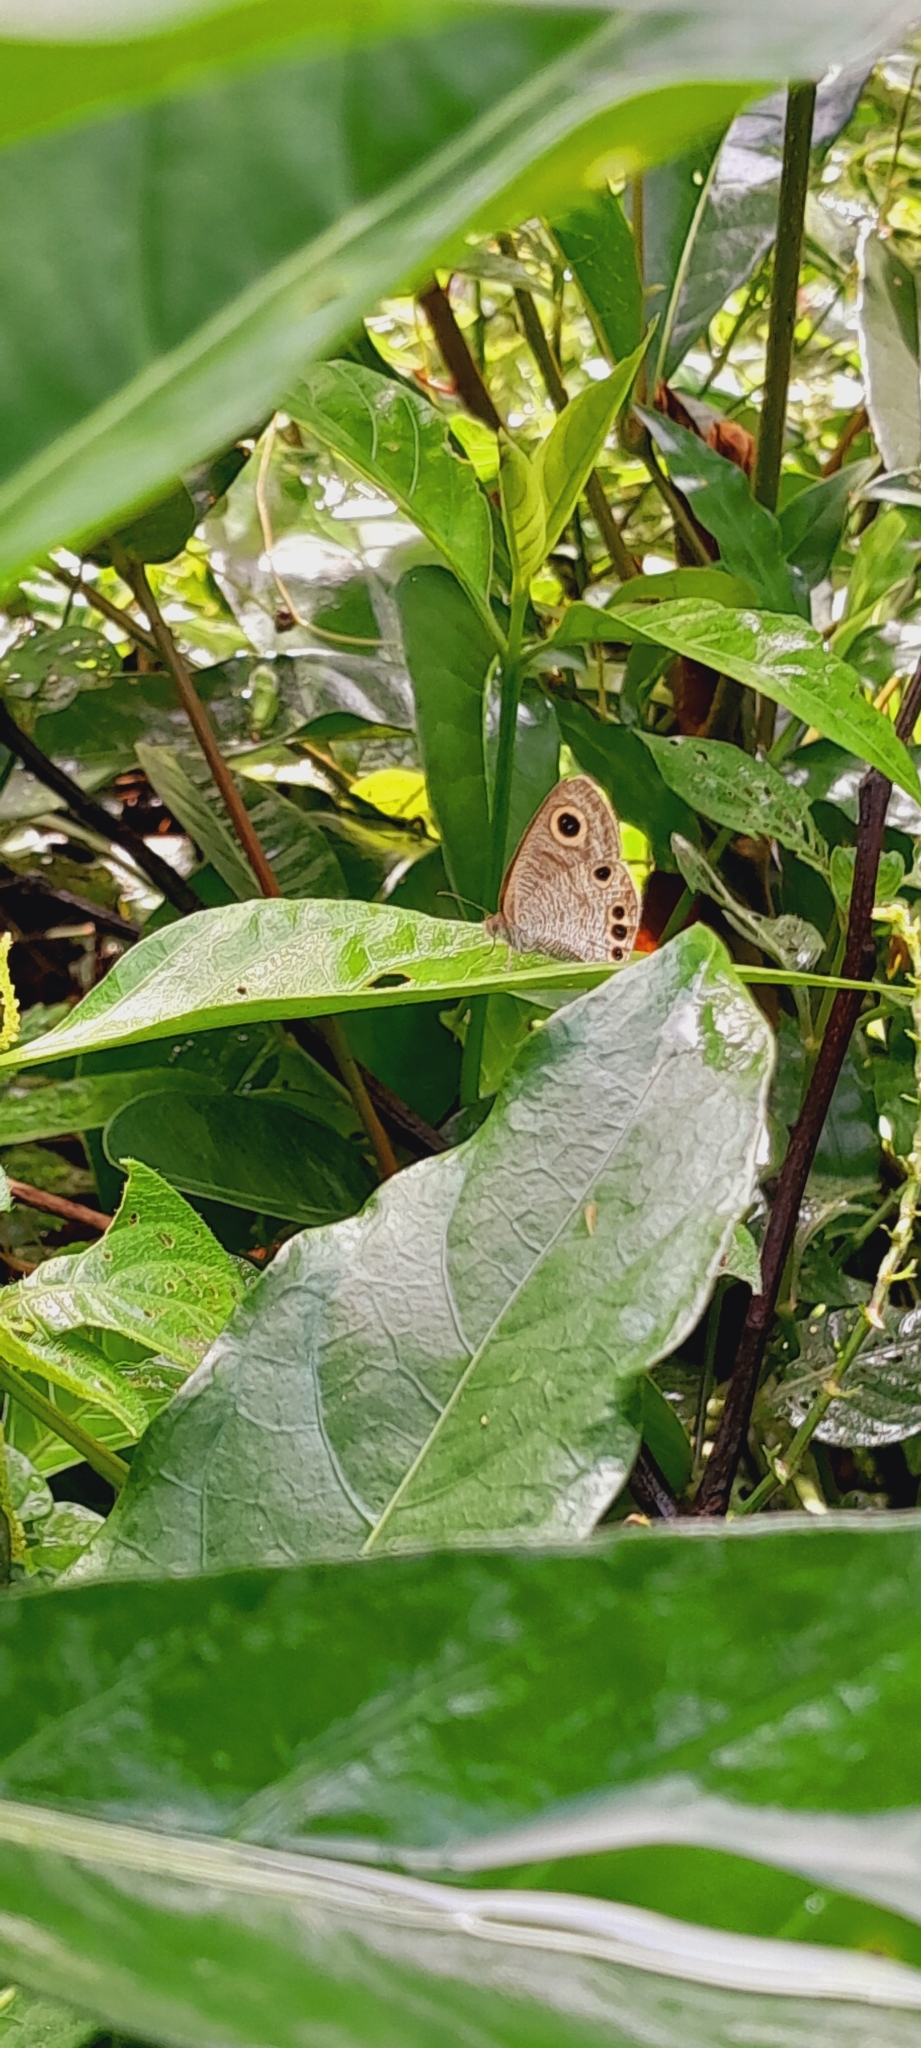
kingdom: Animalia
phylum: Arthropoda
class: Insecta
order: Lepidoptera
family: Nymphalidae
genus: Ypthima
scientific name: Ypthima huebneri
